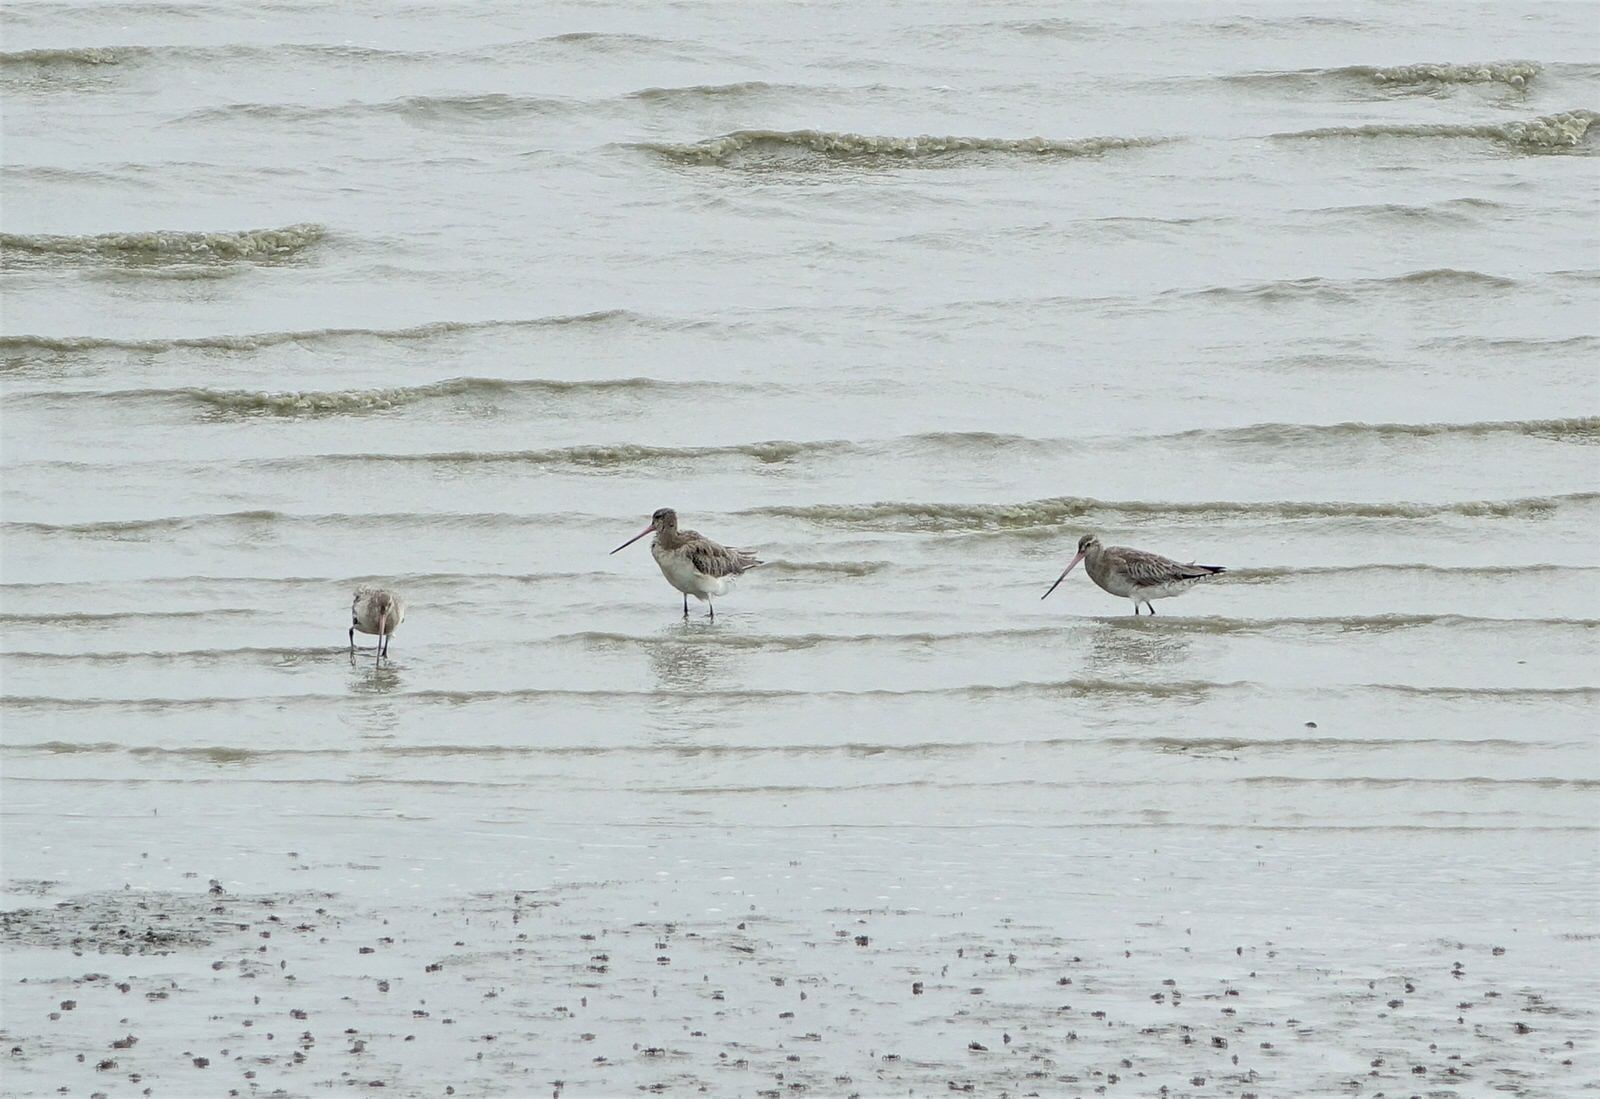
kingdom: Animalia
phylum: Chordata
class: Aves
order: Charadriiformes
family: Scolopacidae
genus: Limosa
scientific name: Limosa lapponica
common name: Bar-tailed godwit
